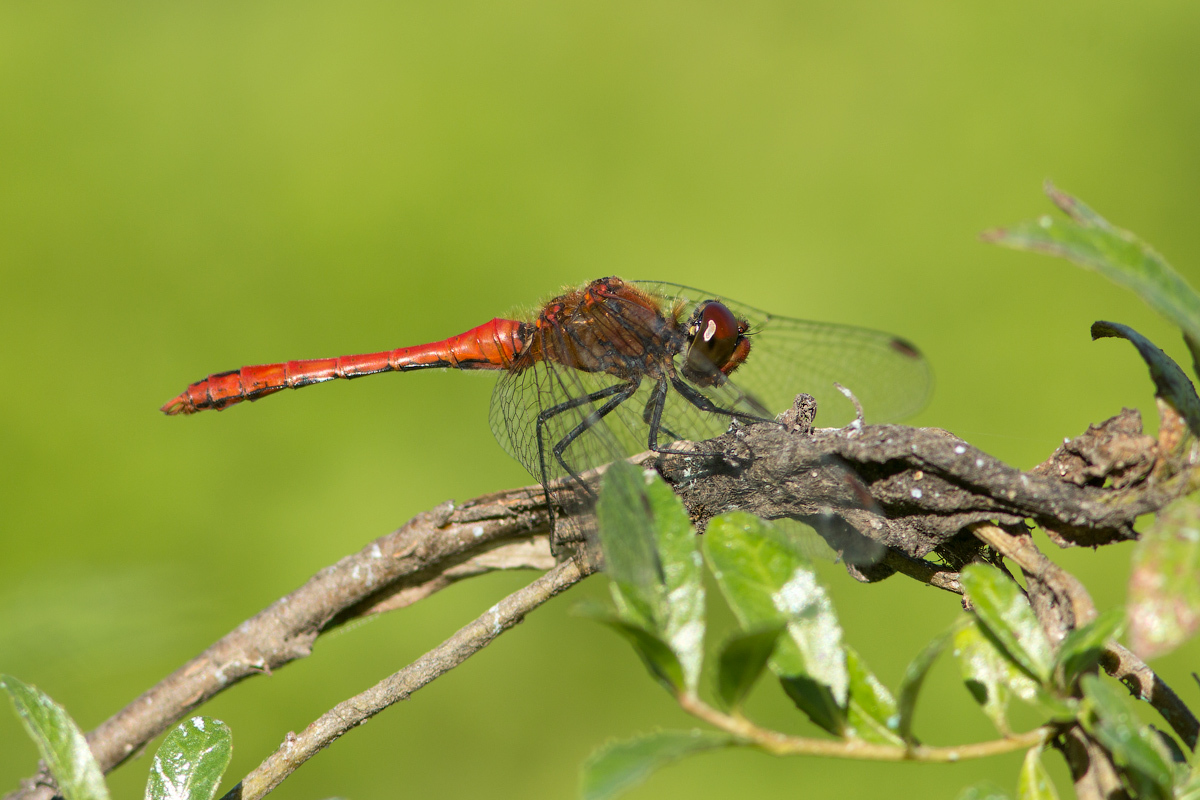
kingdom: Animalia
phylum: Arthropoda
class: Insecta
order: Odonata
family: Libellulidae
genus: Sympetrum
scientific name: Sympetrum sanguineum
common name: Ruddy darter
